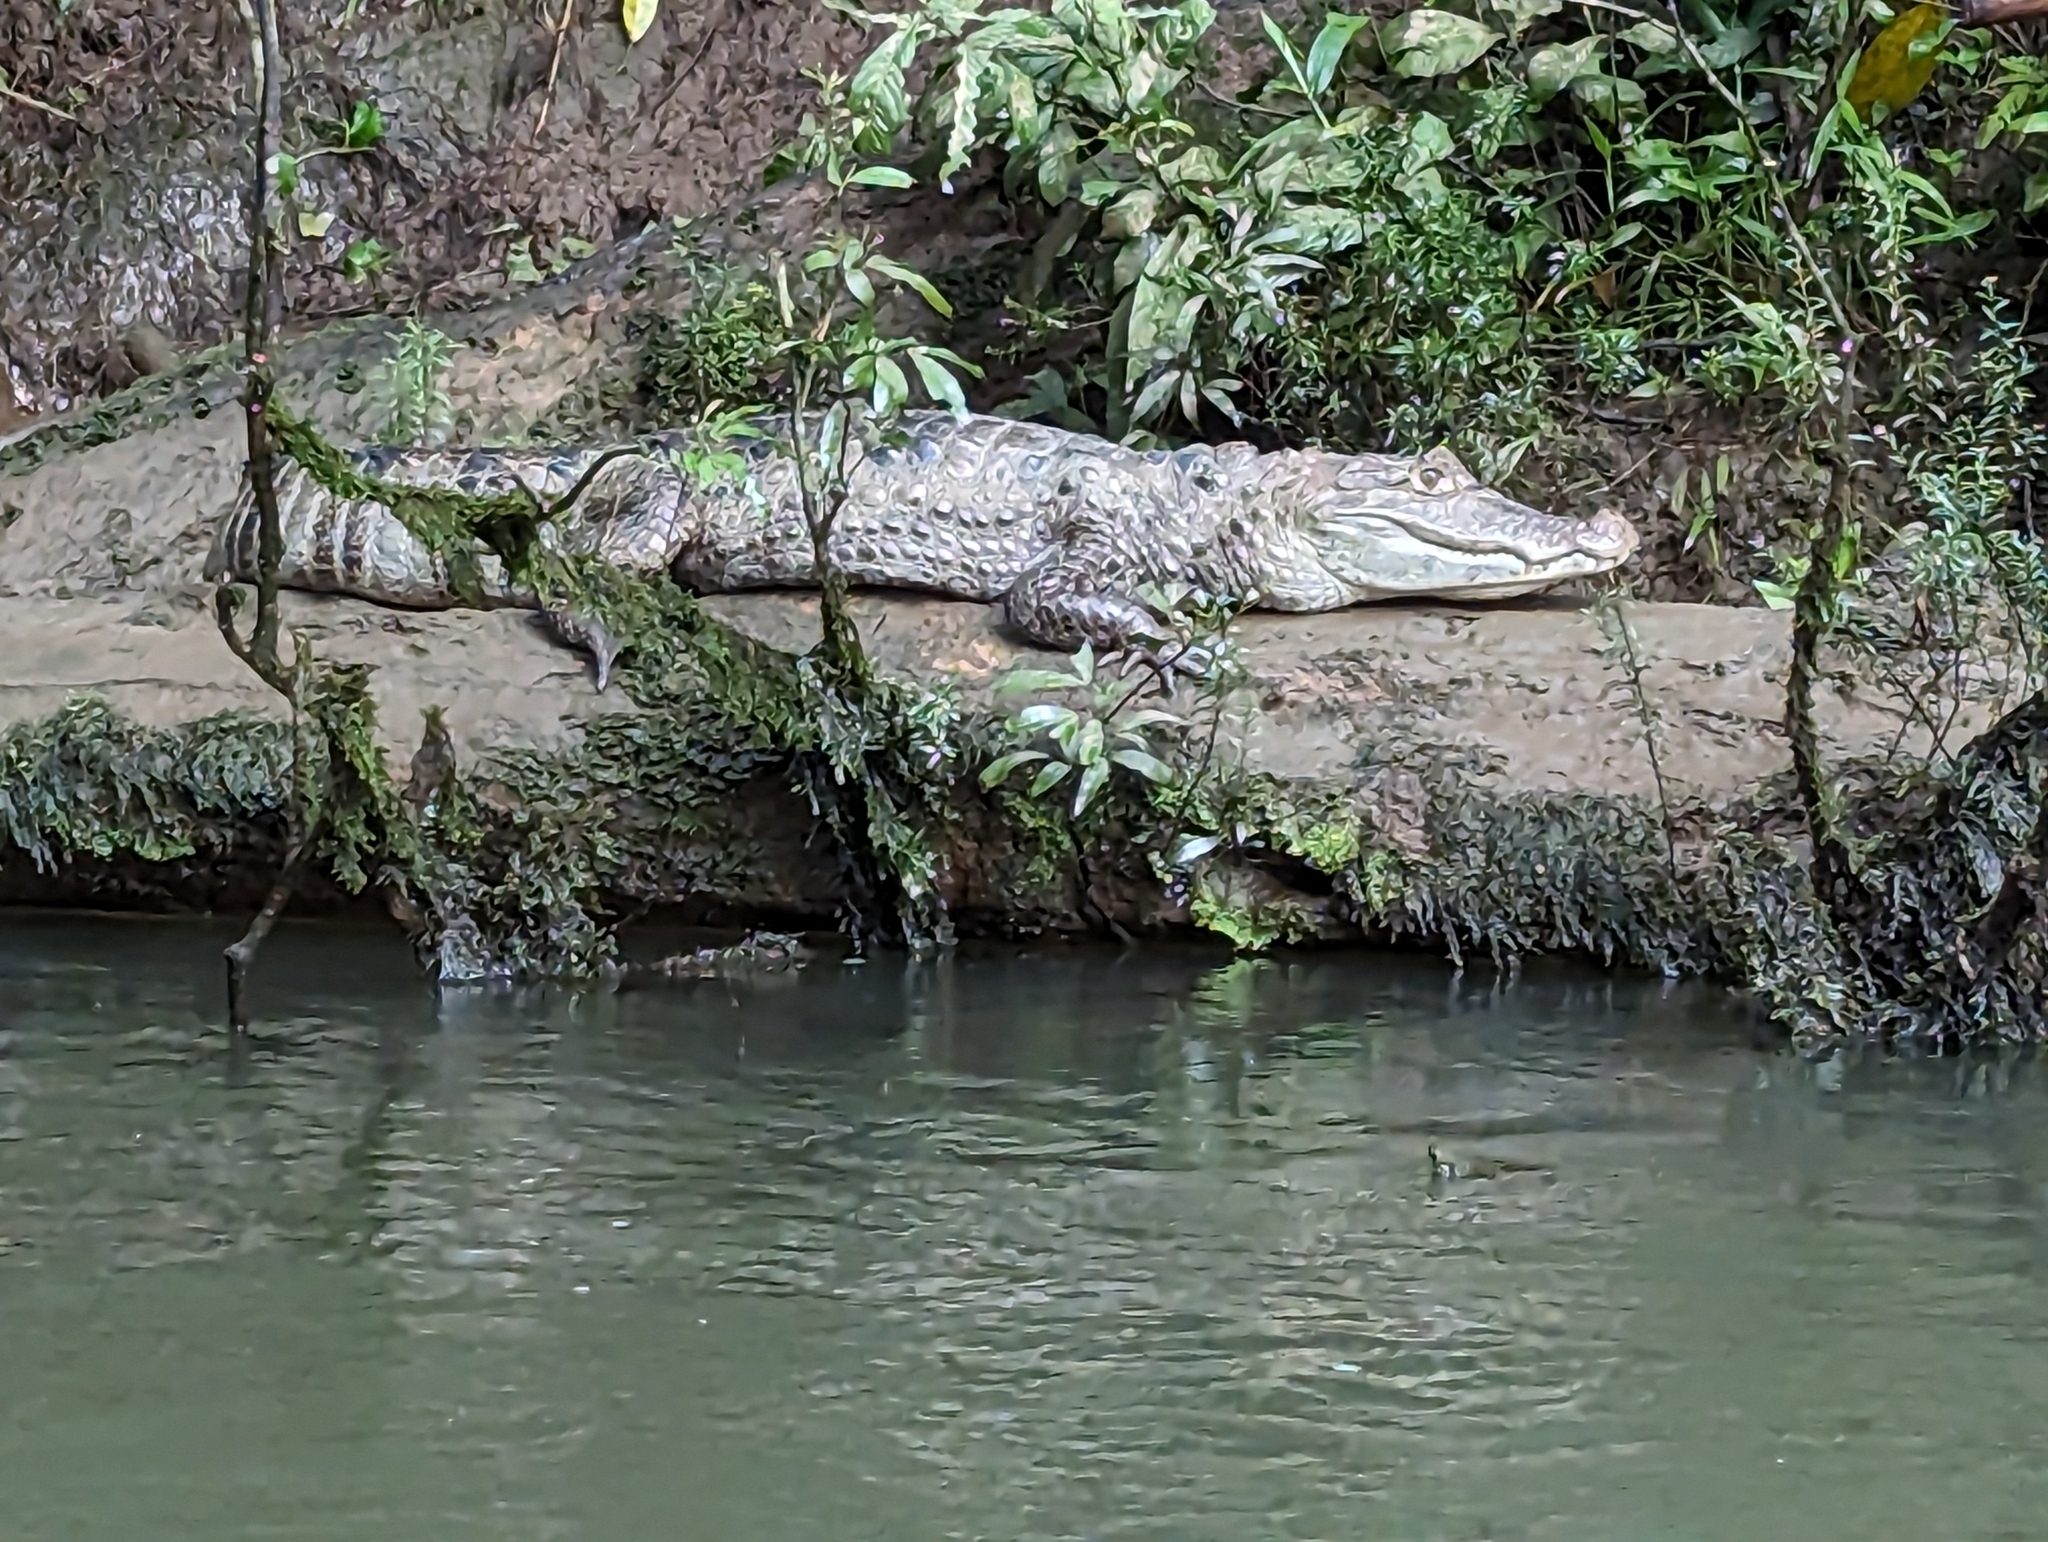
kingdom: Animalia
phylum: Chordata
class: Crocodylia
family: Alligatoridae
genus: Caiman
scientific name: Caiman crocodilus
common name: Common caiman
